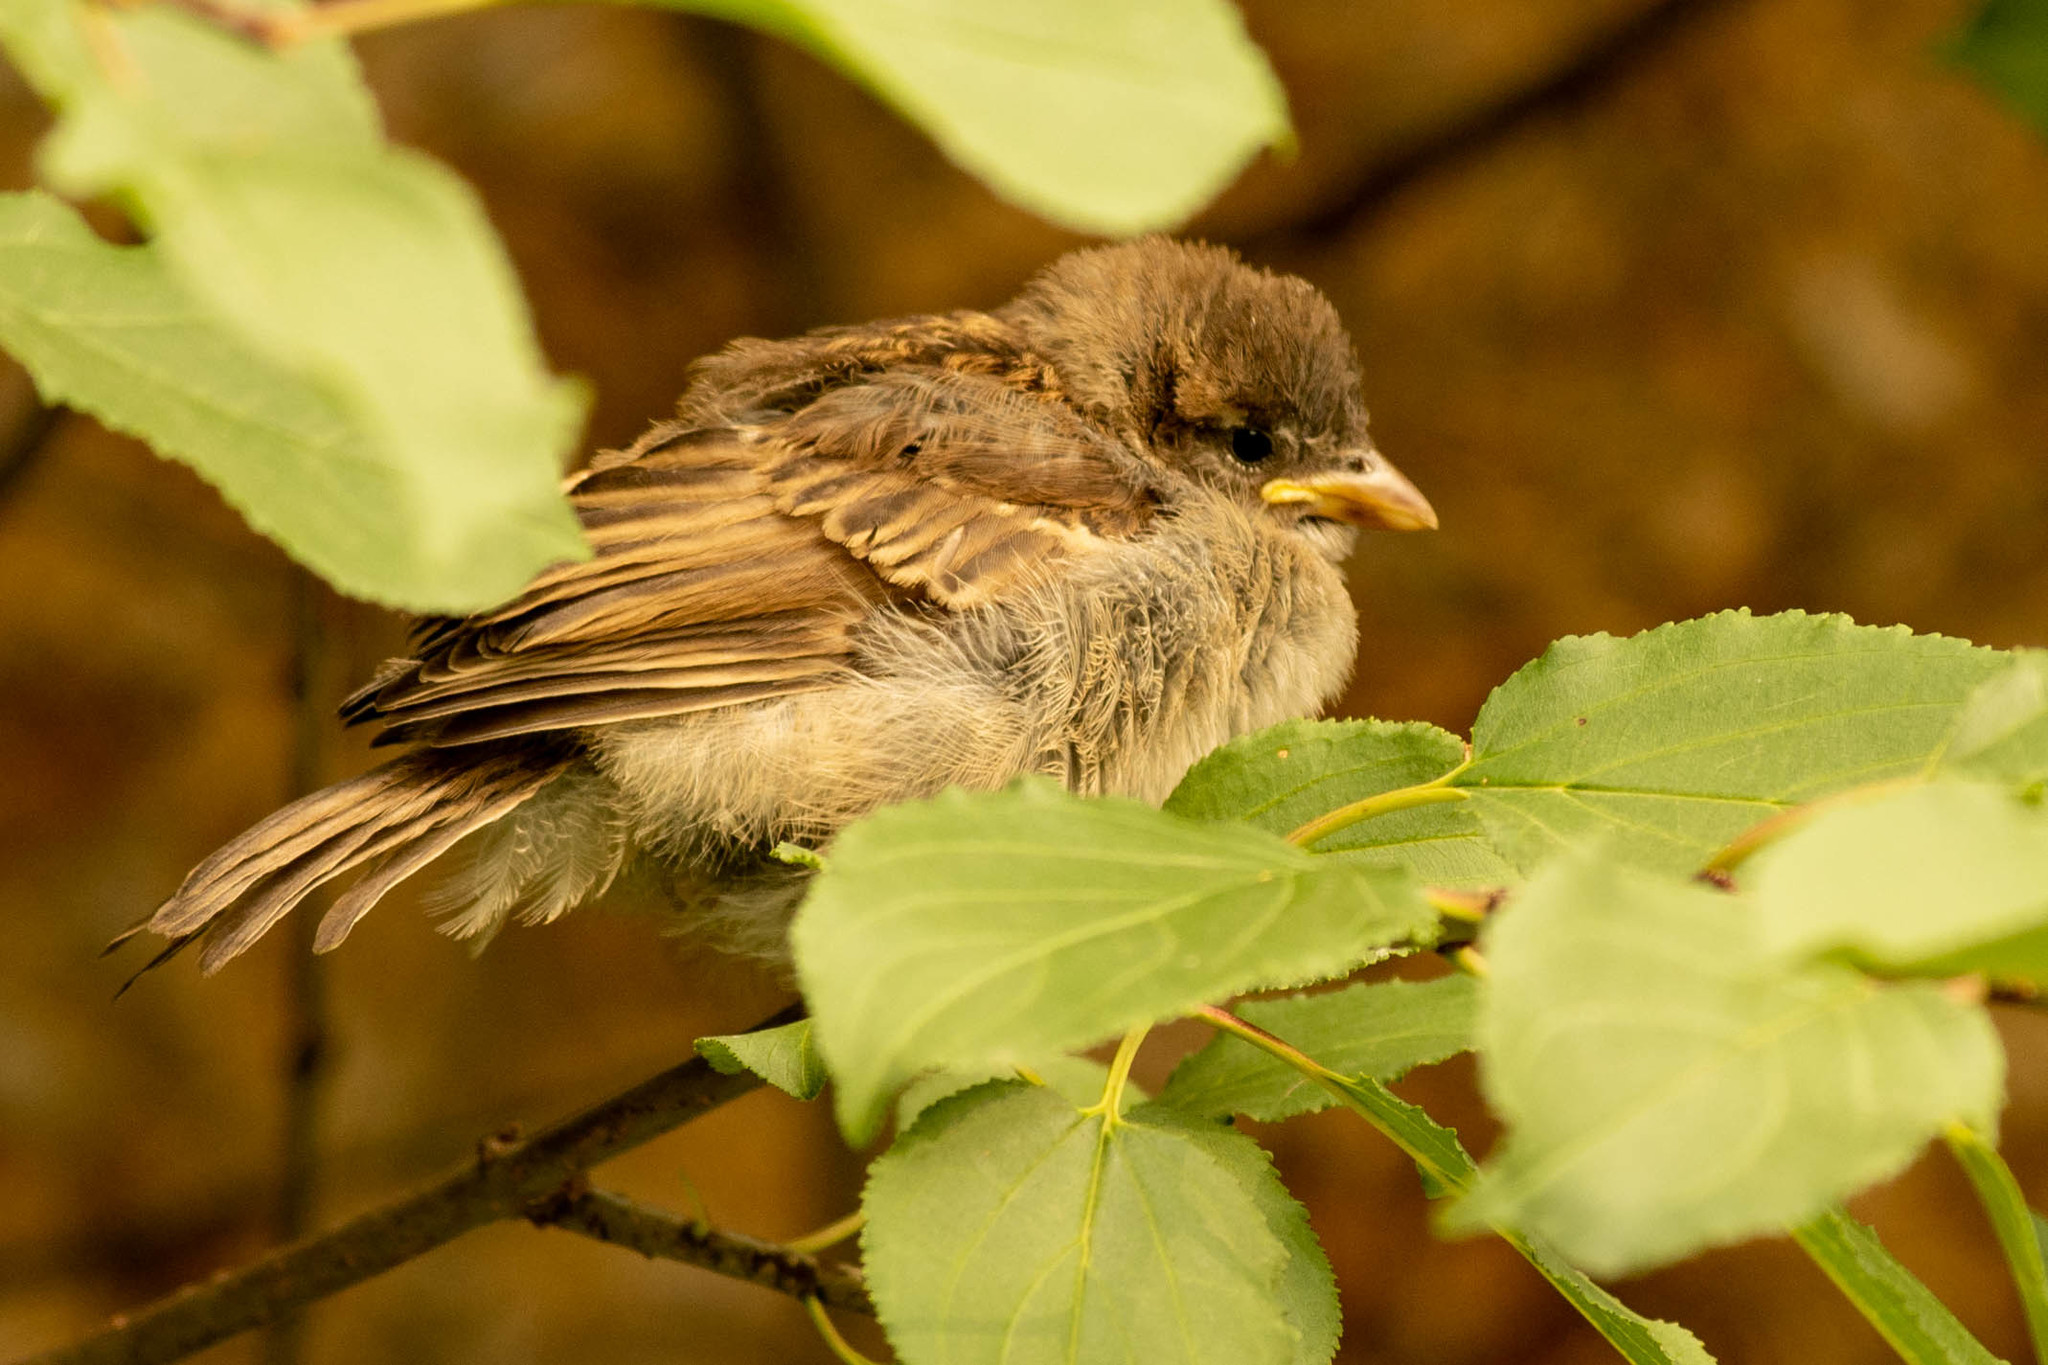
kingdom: Animalia
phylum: Chordata
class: Aves
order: Passeriformes
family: Passeridae
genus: Passer
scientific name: Passer domesticus
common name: House sparrow
